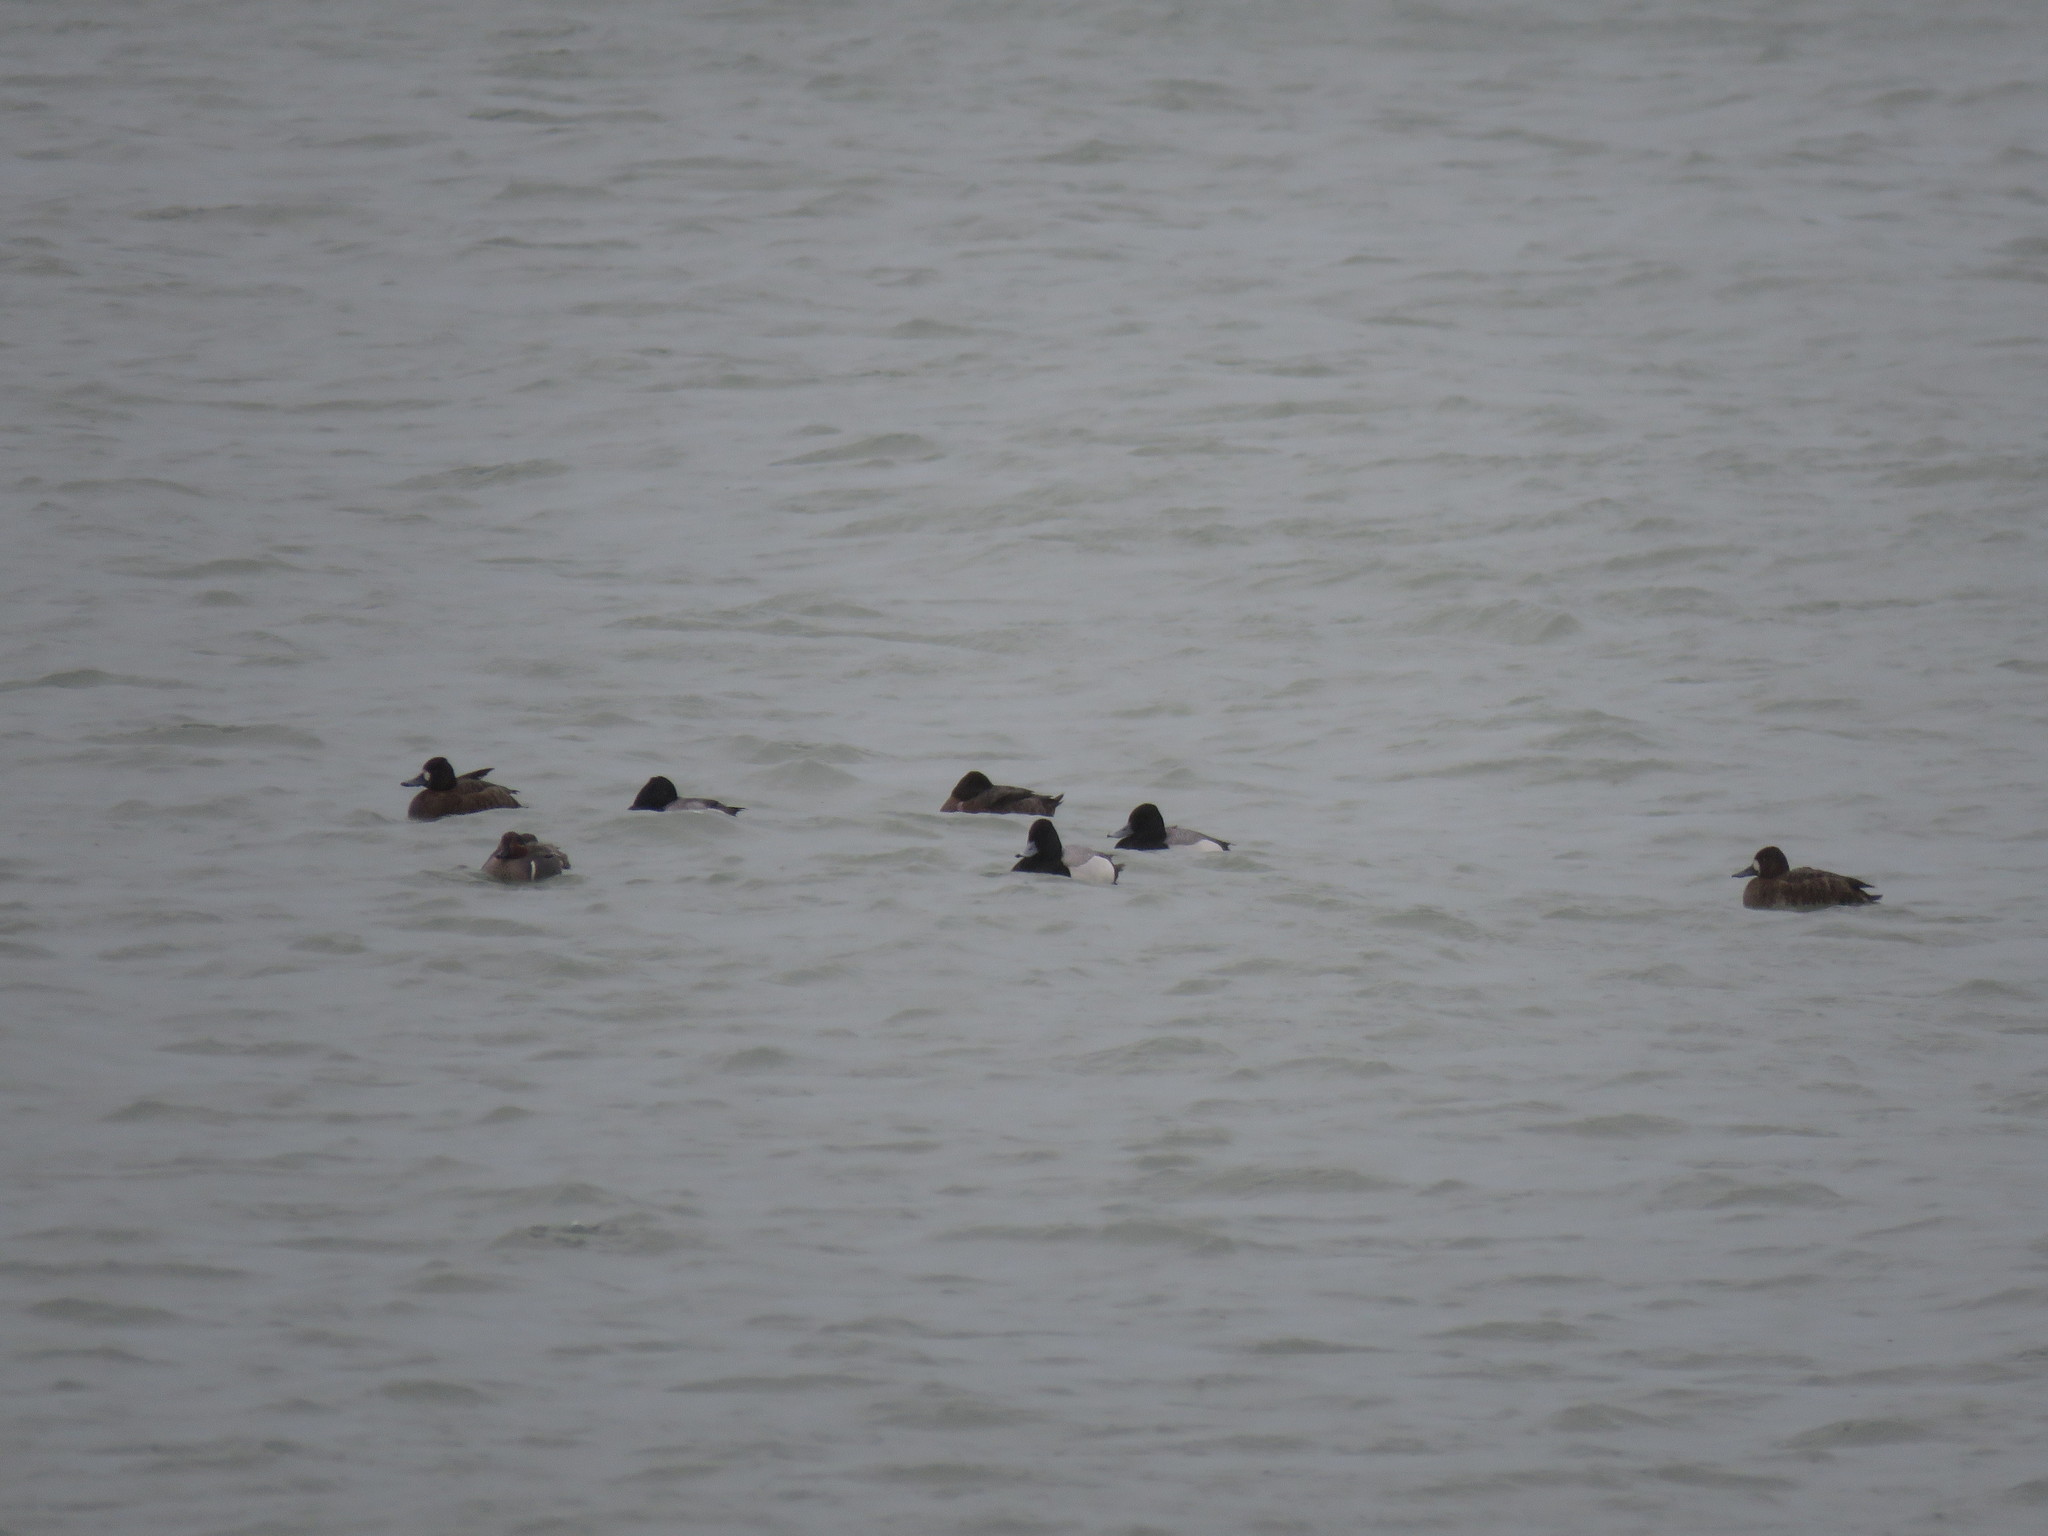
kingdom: Animalia
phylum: Chordata
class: Aves
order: Anseriformes
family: Anatidae
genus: Aythya
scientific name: Aythya affinis
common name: Lesser scaup
